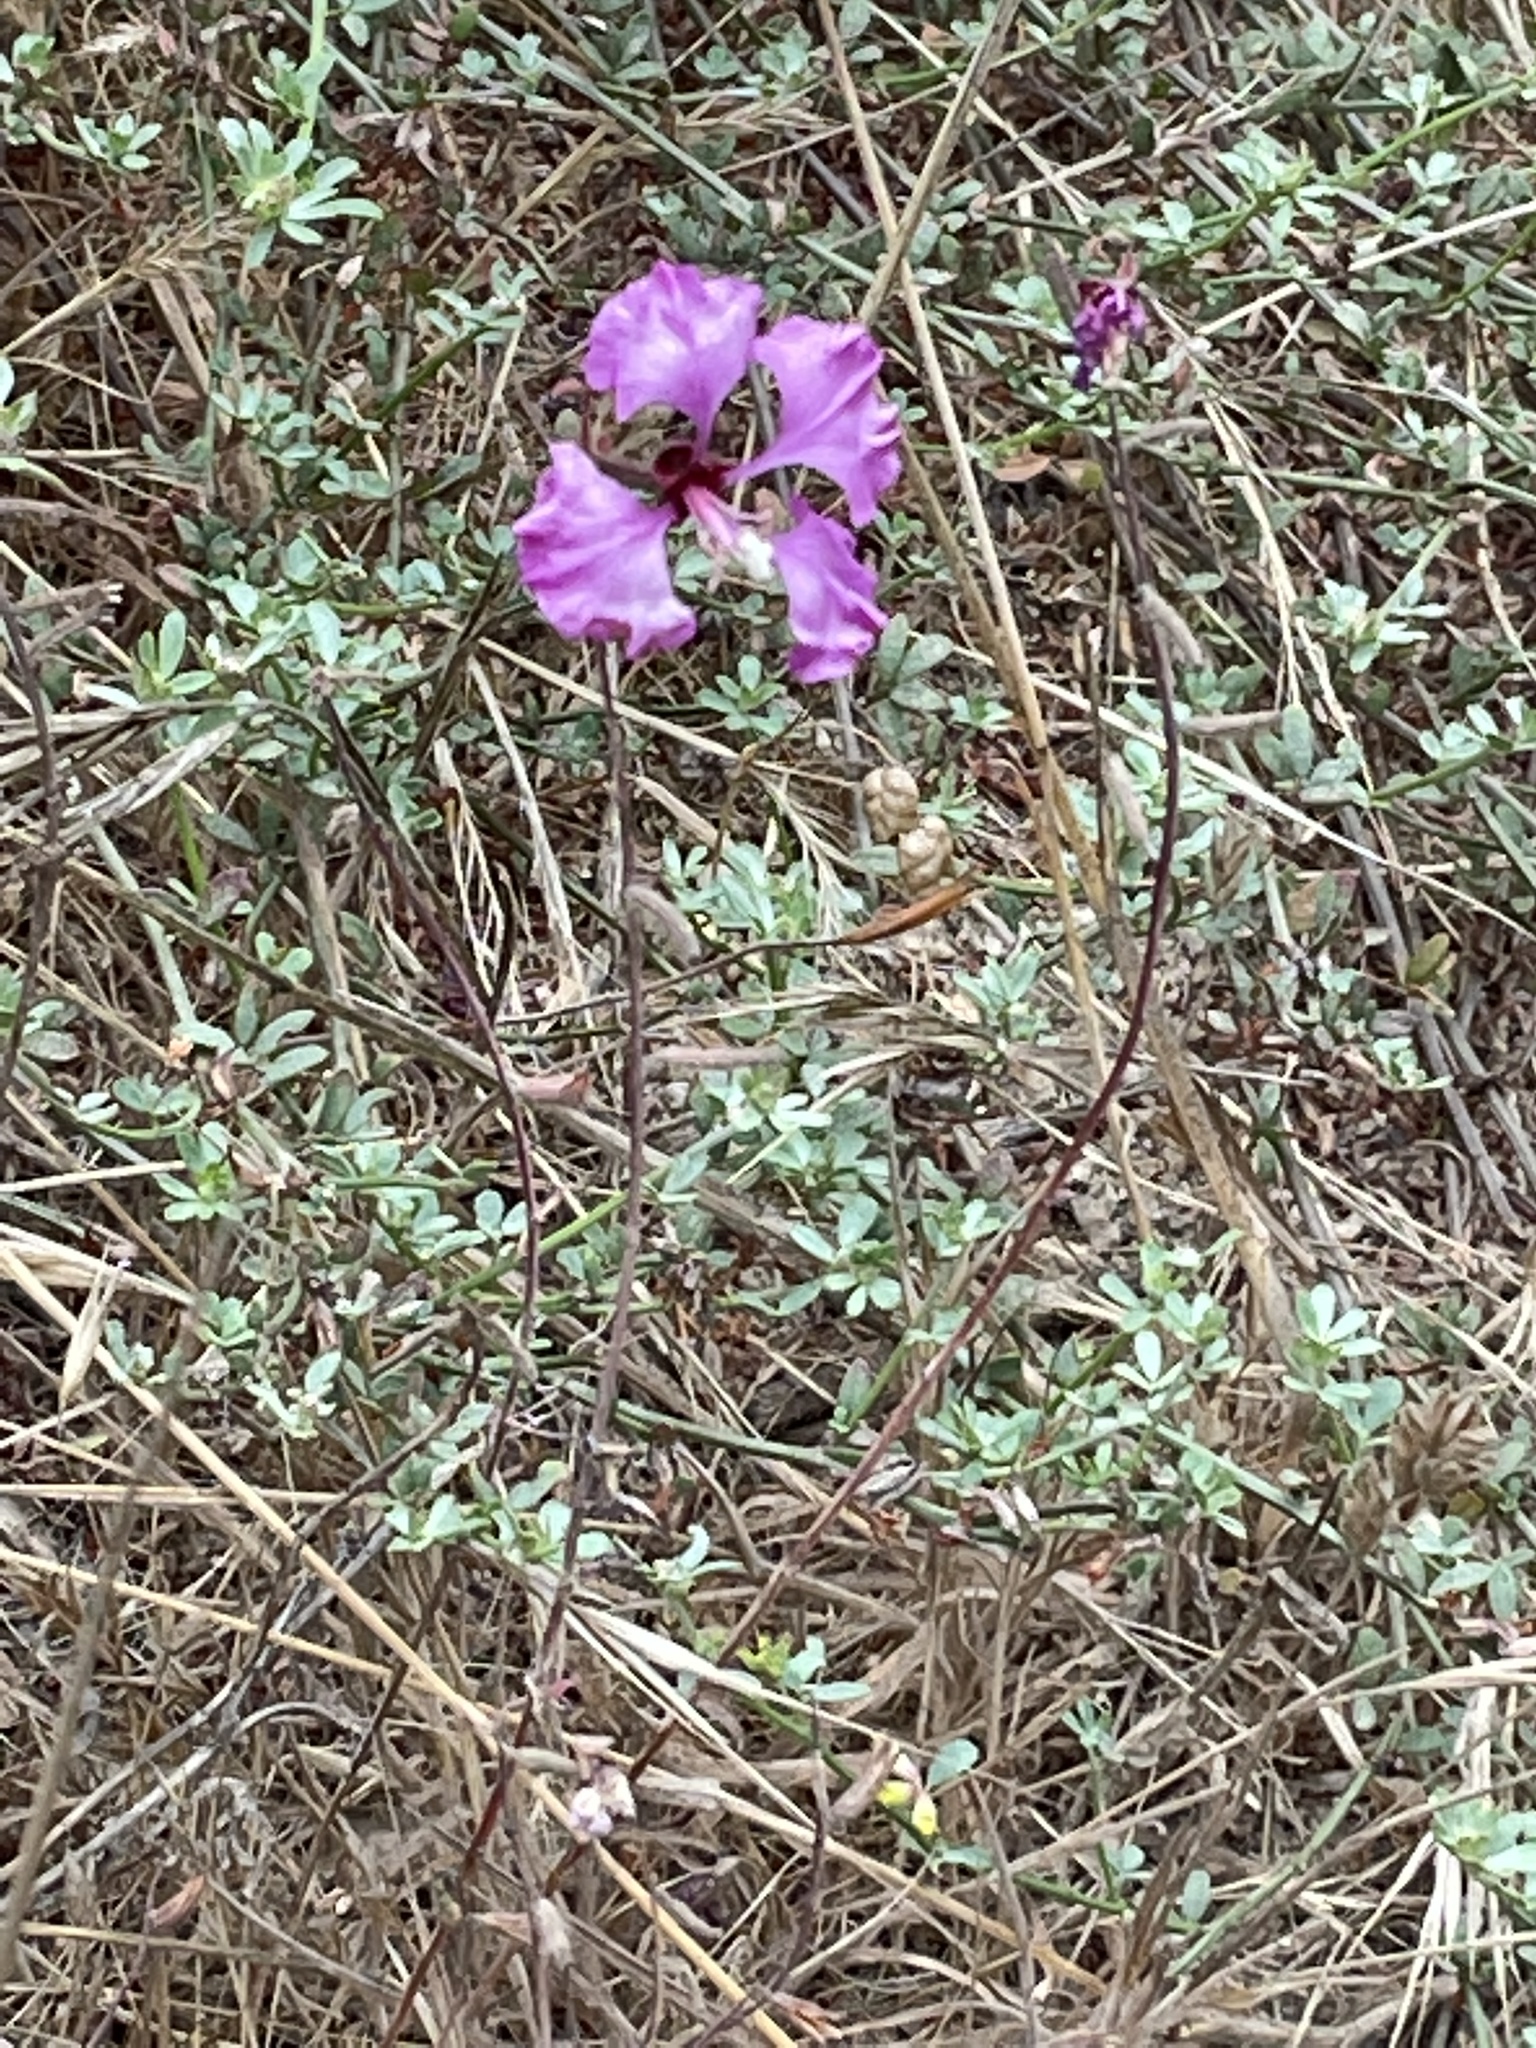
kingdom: Plantae
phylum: Tracheophyta
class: Magnoliopsida
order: Myrtales
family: Onagraceae
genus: Clarkia
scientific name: Clarkia unguiculata
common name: Clarkia
